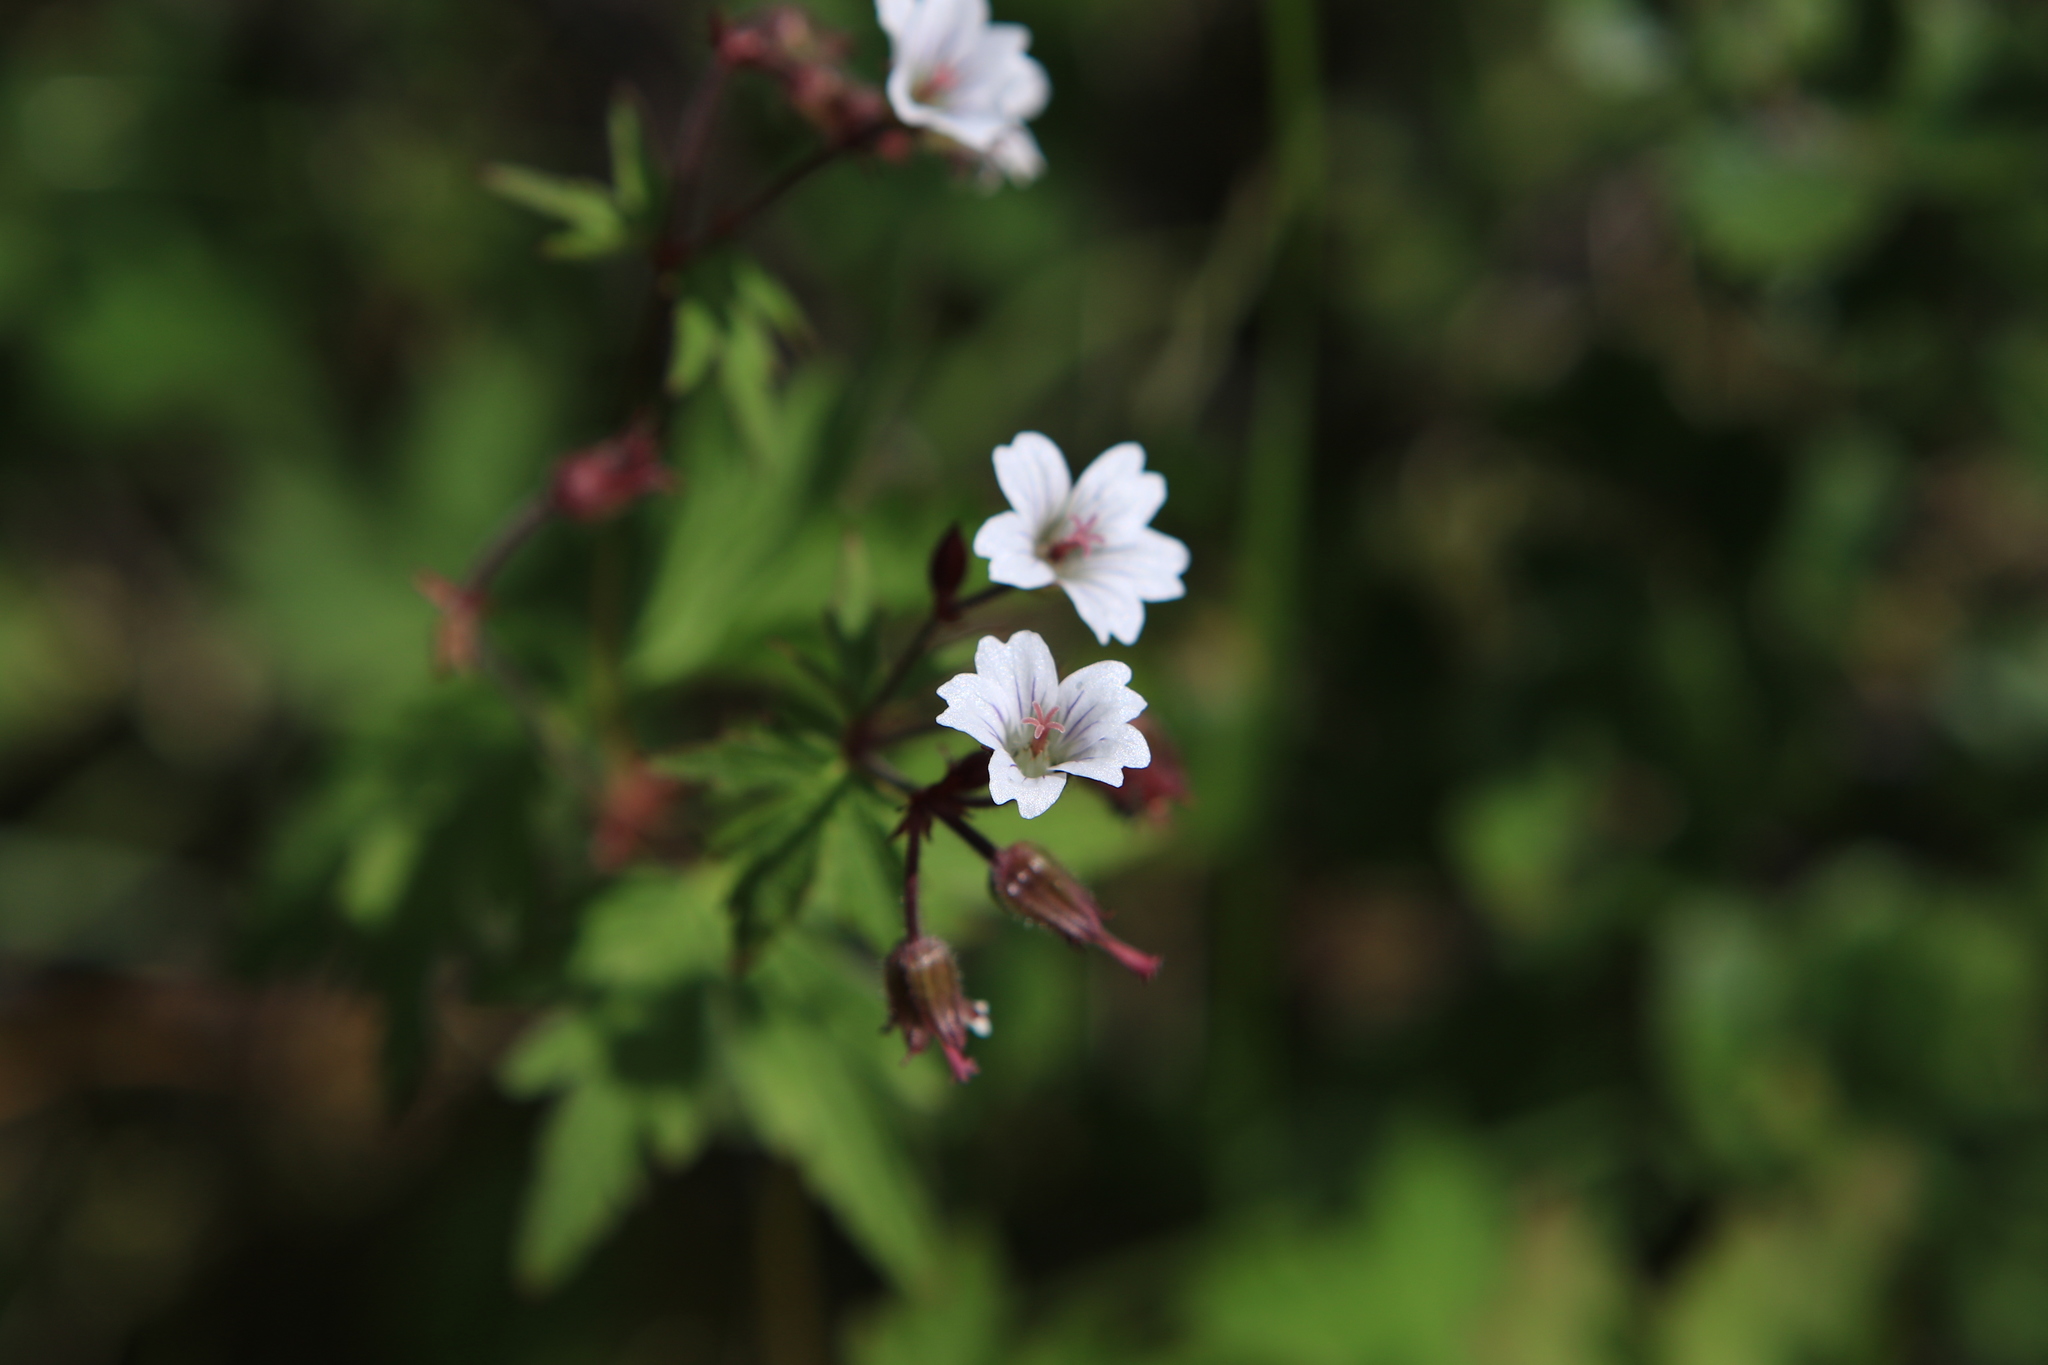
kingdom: Plantae
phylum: Tracheophyta
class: Magnoliopsida
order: Geraniales
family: Geraniaceae
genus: Geranium
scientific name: Geranium sylvaticum
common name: Wood crane's-bill
